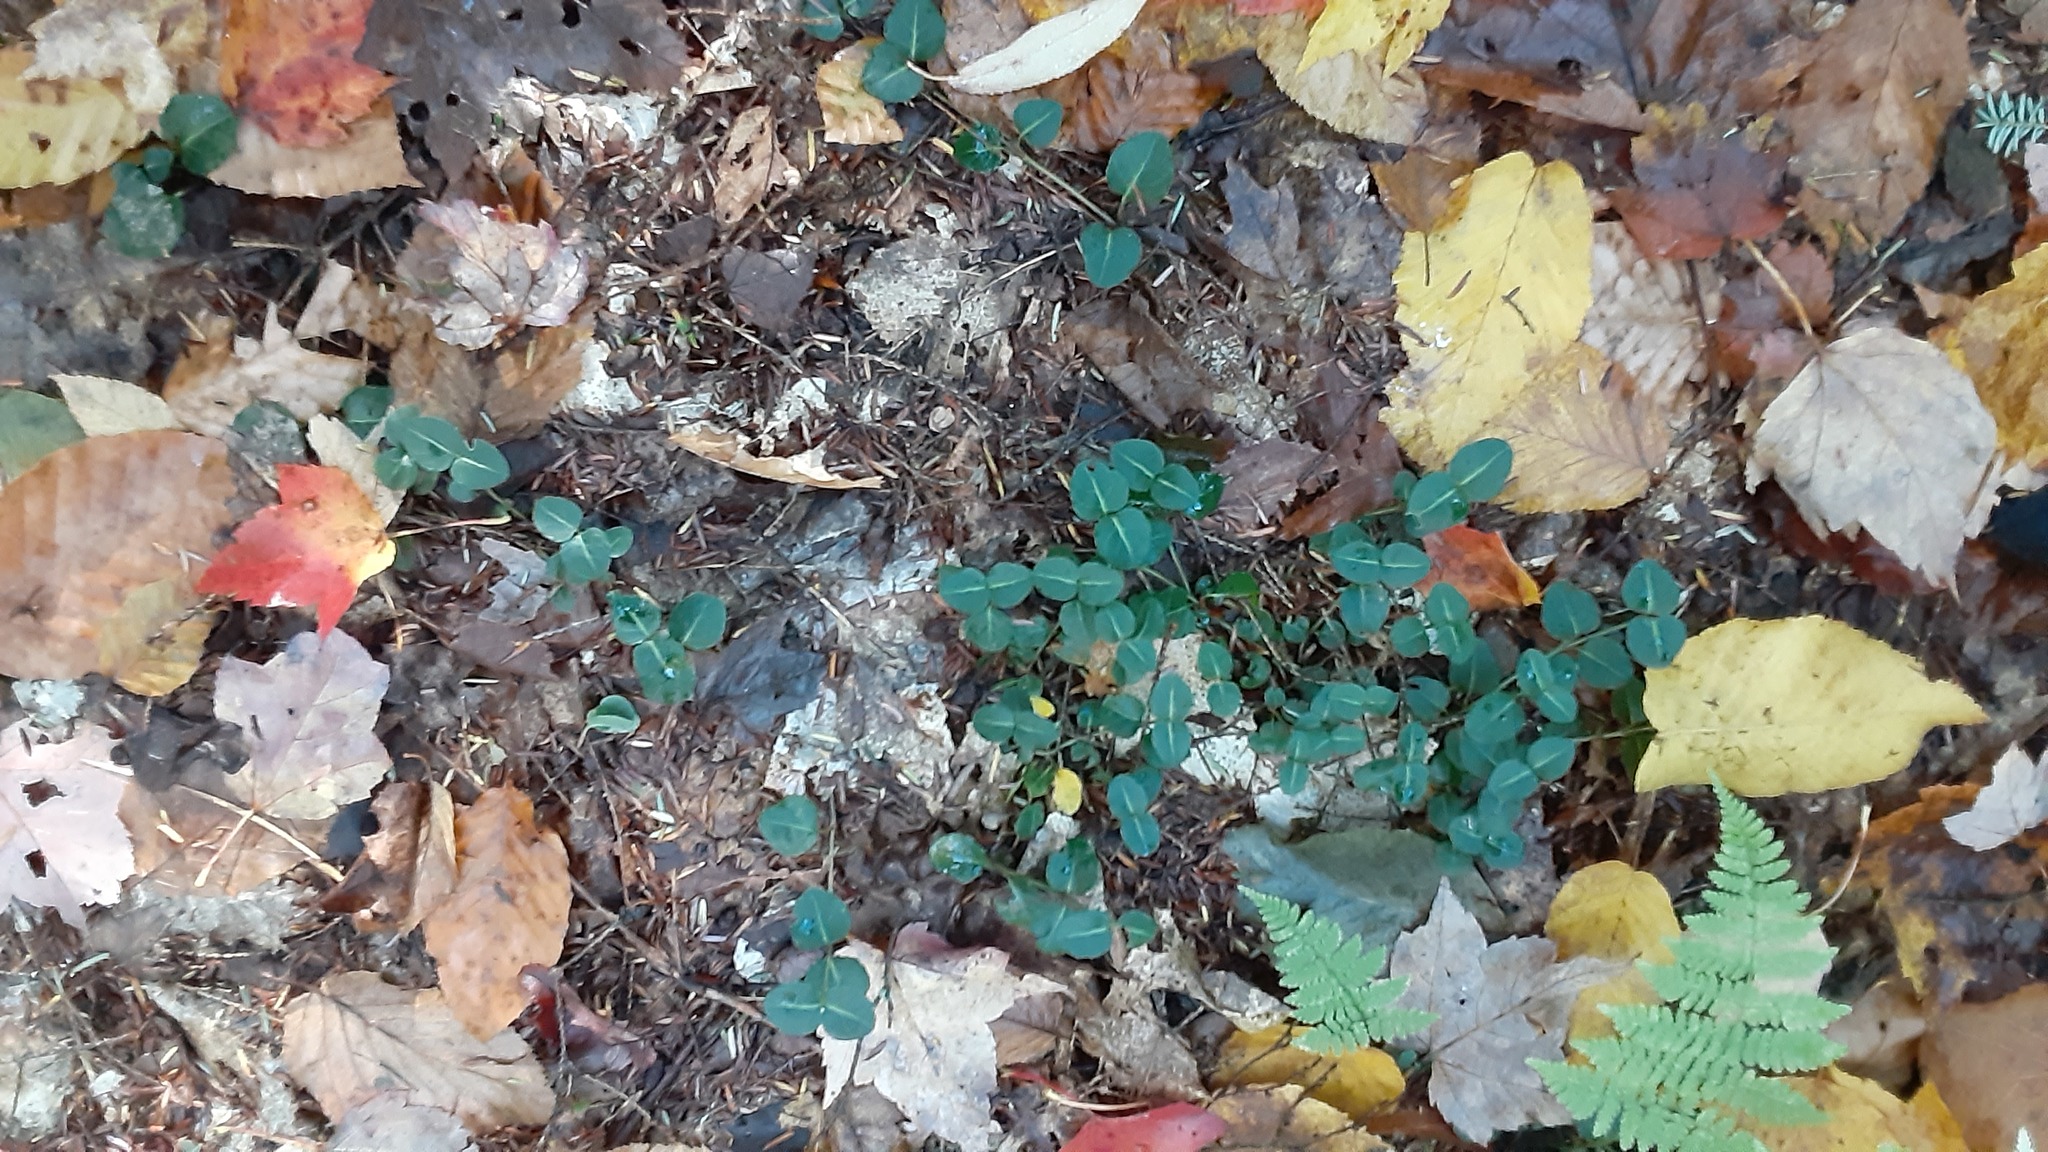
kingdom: Plantae
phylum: Tracheophyta
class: Magnoliopsida
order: Gentianales
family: Rubiaceae
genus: Mitchella
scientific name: Mitchella repens
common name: Partridge-berry
